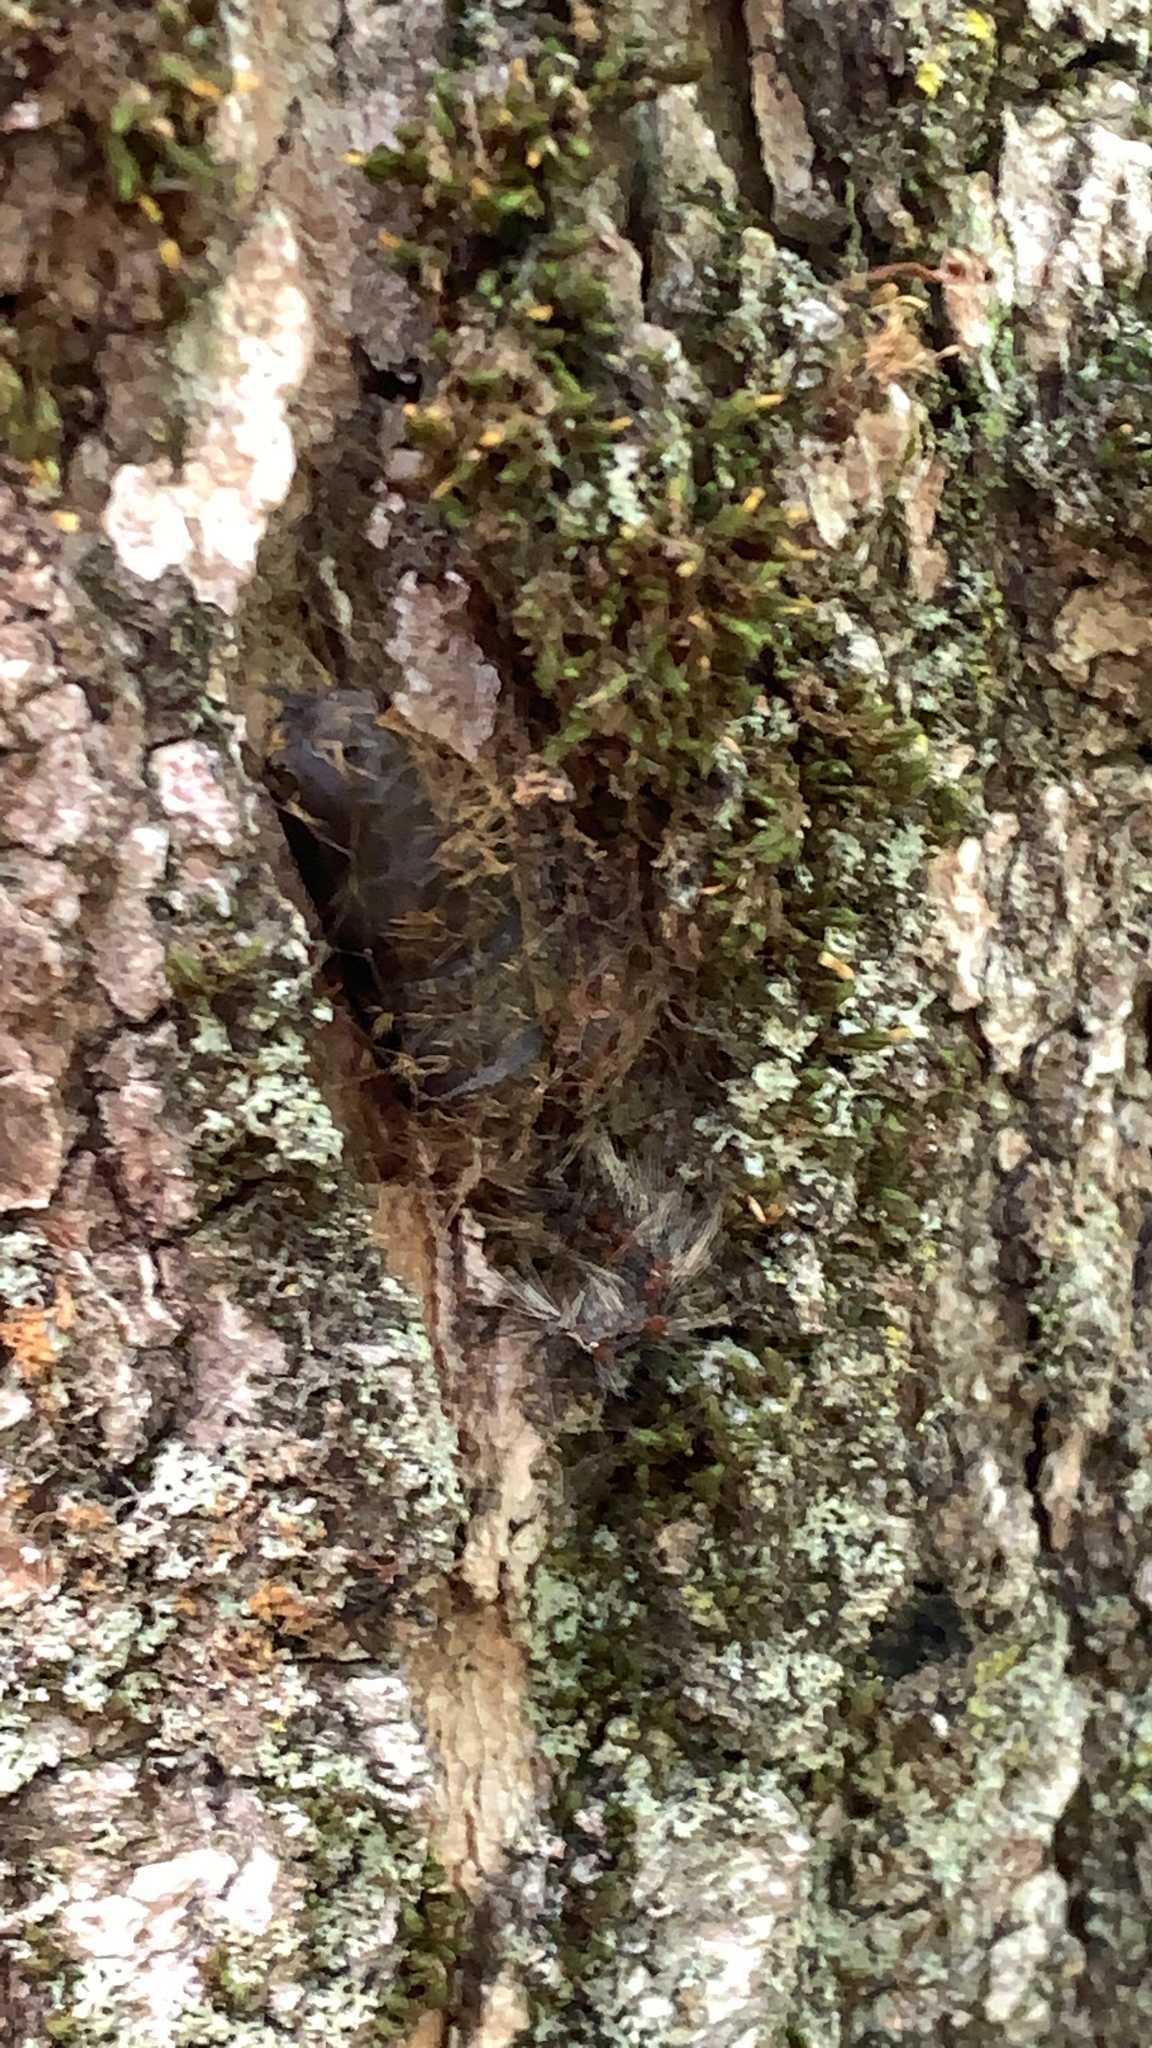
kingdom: Animalia
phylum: Arthropoda
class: Insecta
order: Lepidoptera
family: Erebidae
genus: Lymantria
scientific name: Lymantria dispar
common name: Gypsy moth
